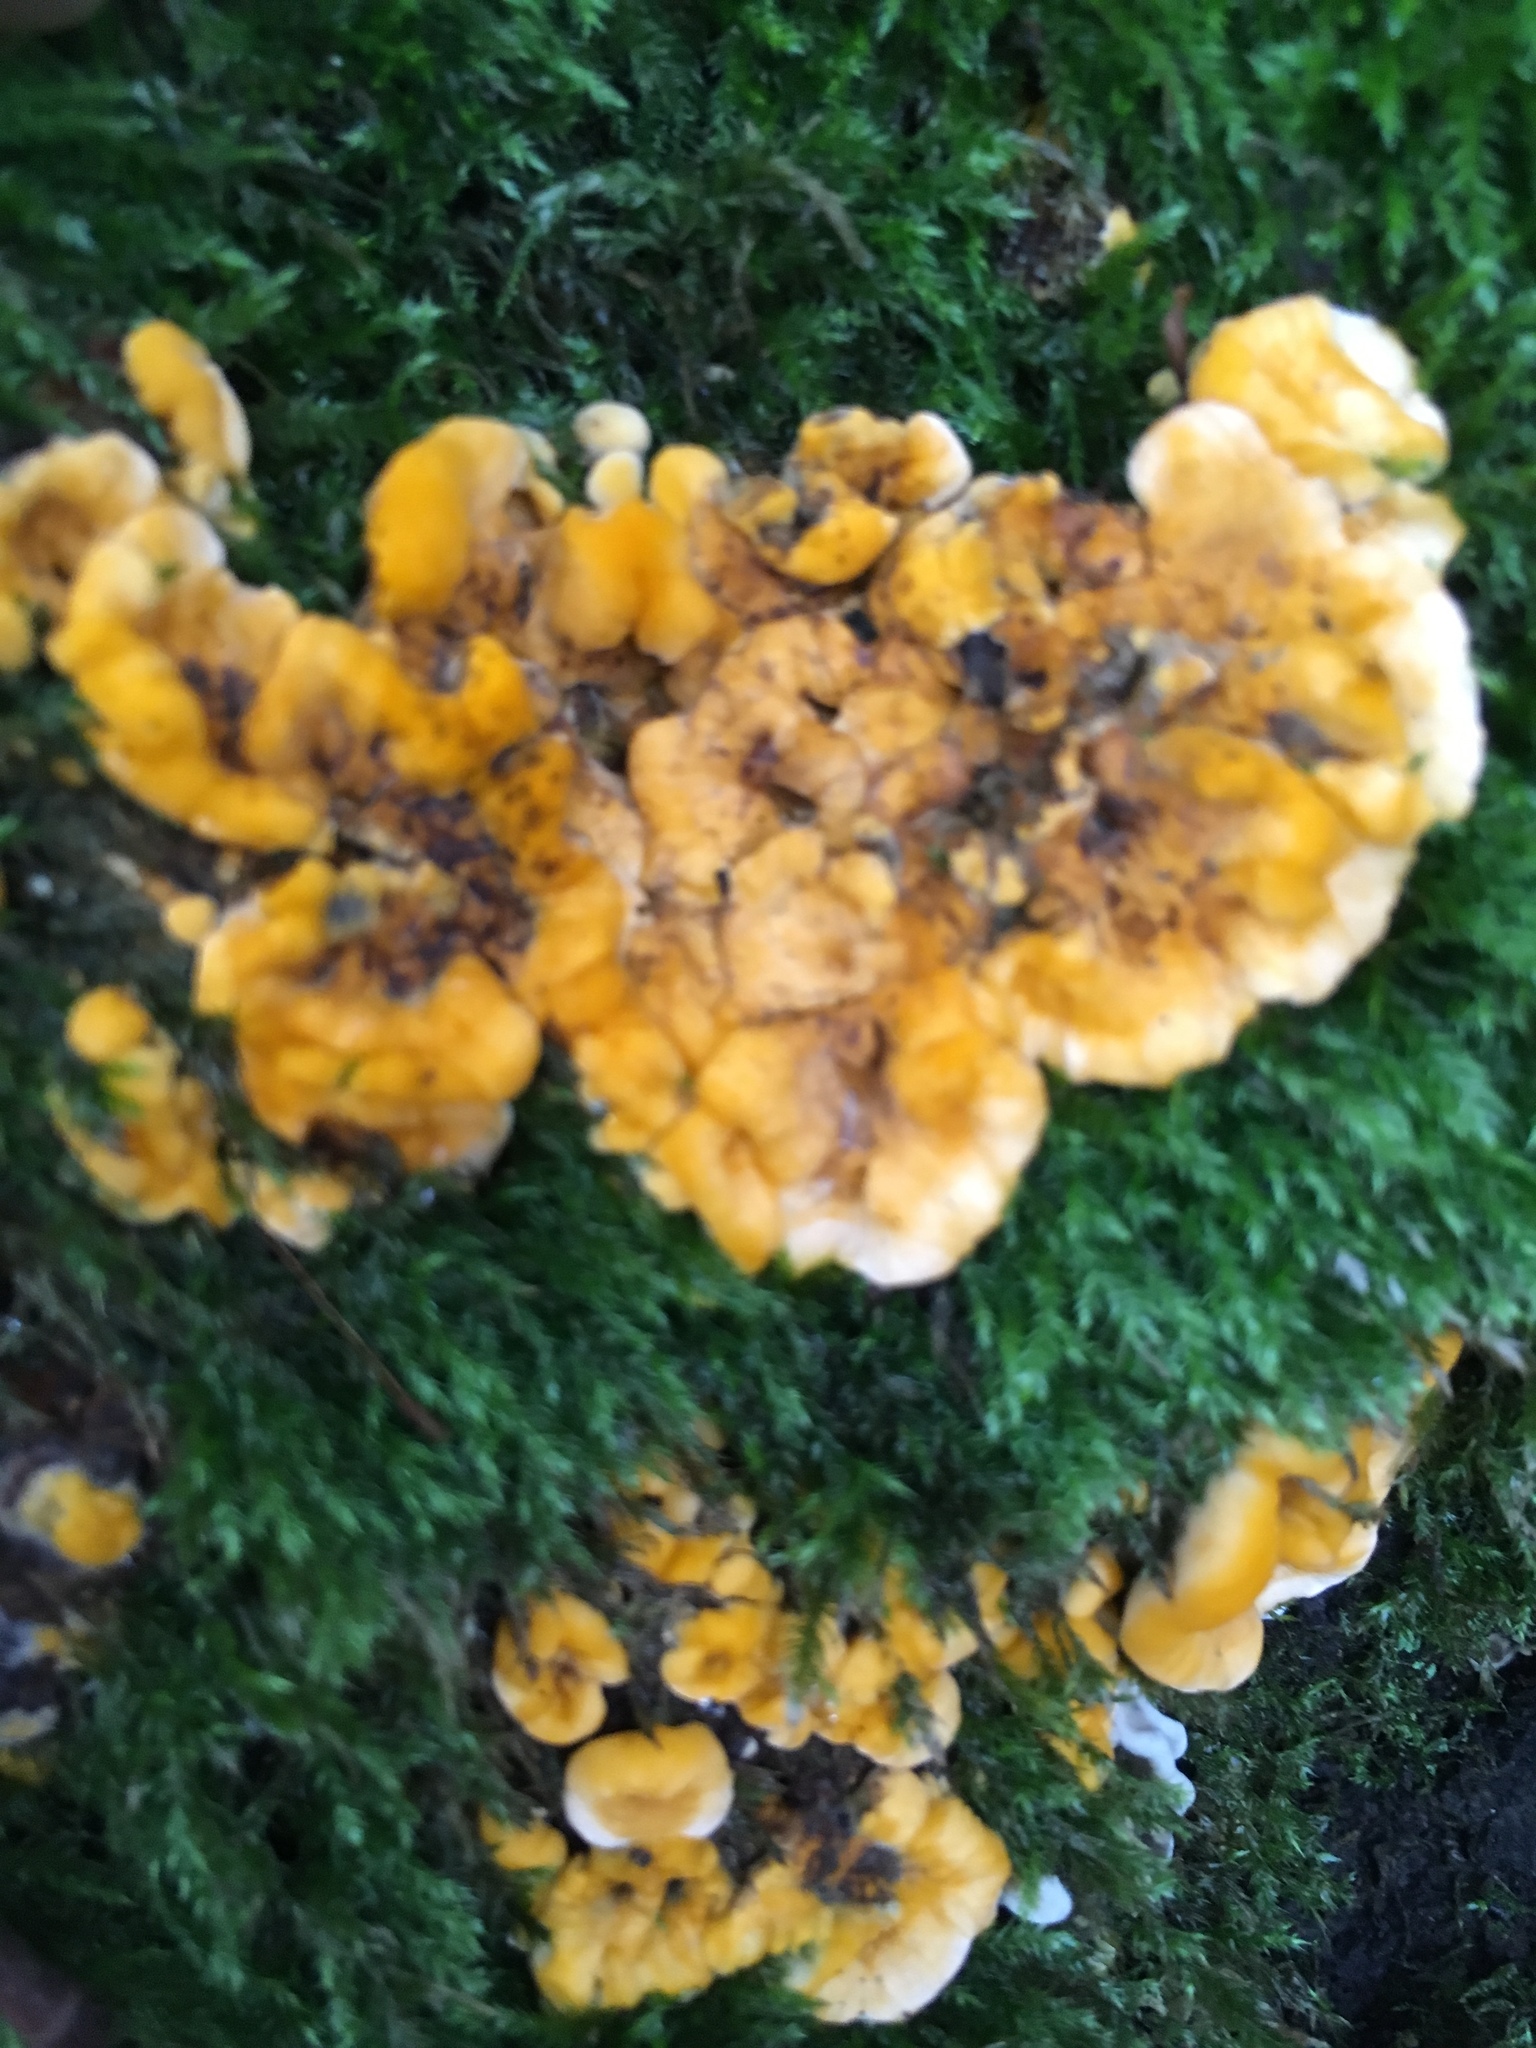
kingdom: Fungi
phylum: Basidiomycota
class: Agaricomycetes
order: Russulales
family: Stereaceae
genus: Stereum
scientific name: Stereum hirsutum
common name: Hairy curtain crust
